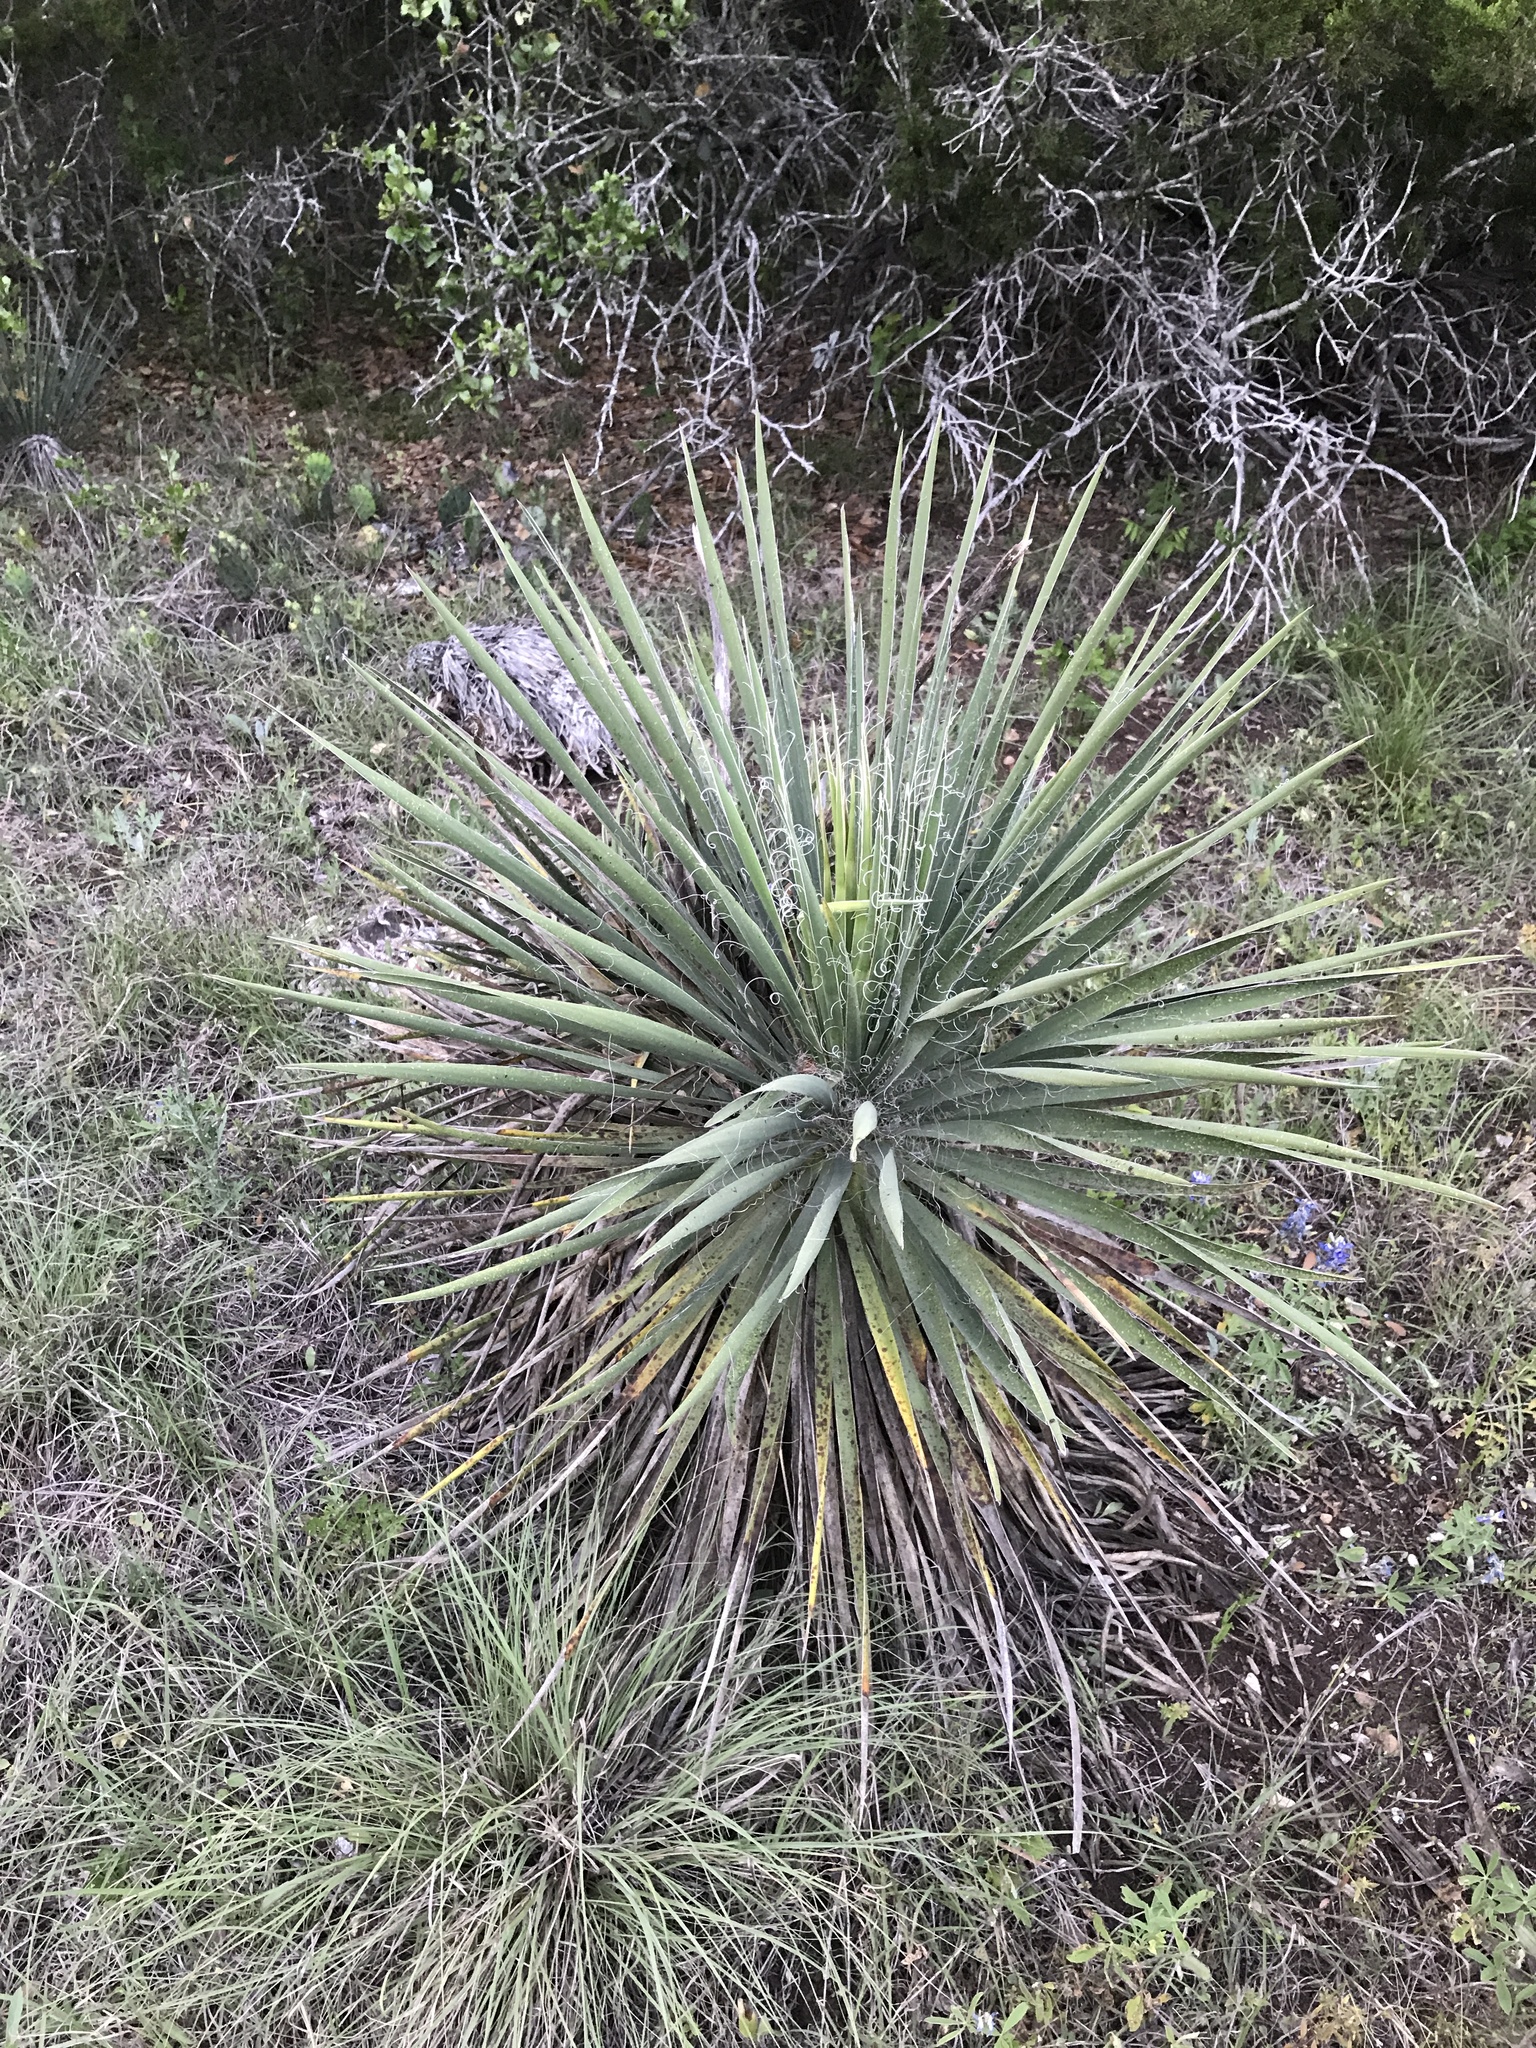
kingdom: Plantae
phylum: Tracheophyta
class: Liliopsida
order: Asparagales
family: Asparagaceae
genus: Yucca
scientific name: Yucca constricta
